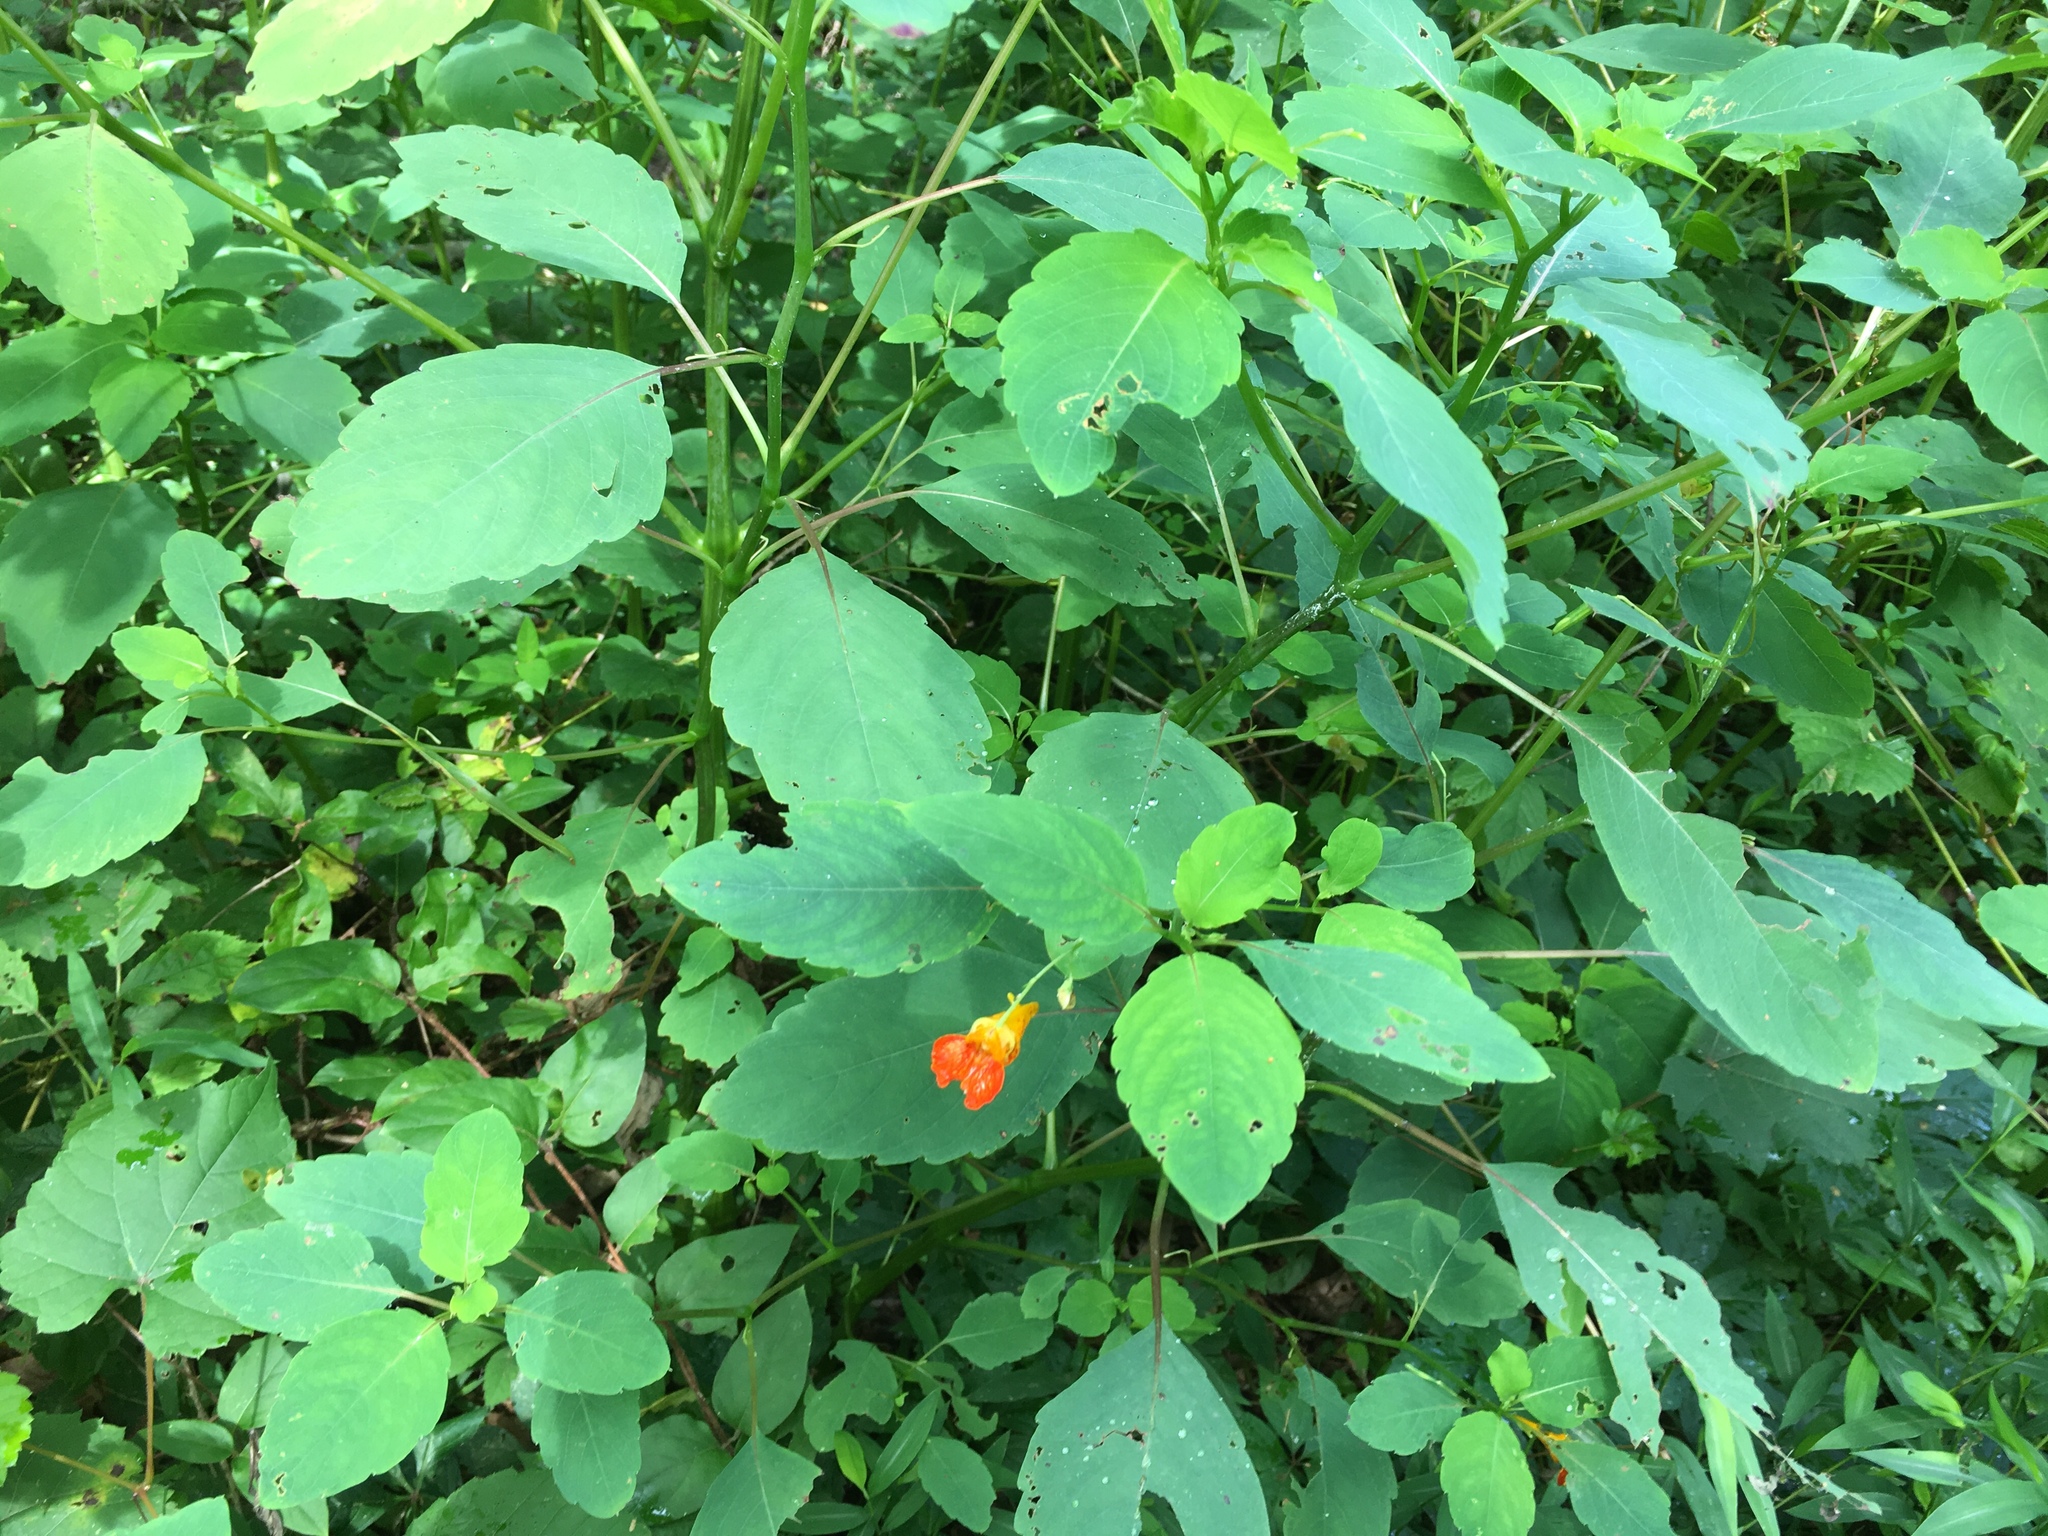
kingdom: Plantae
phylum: Tracheophyta
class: Magnoliopsida
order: Ericales
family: Balsaminaceae
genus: Impatiens
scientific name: Impatiens capensis
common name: Orange balsam
